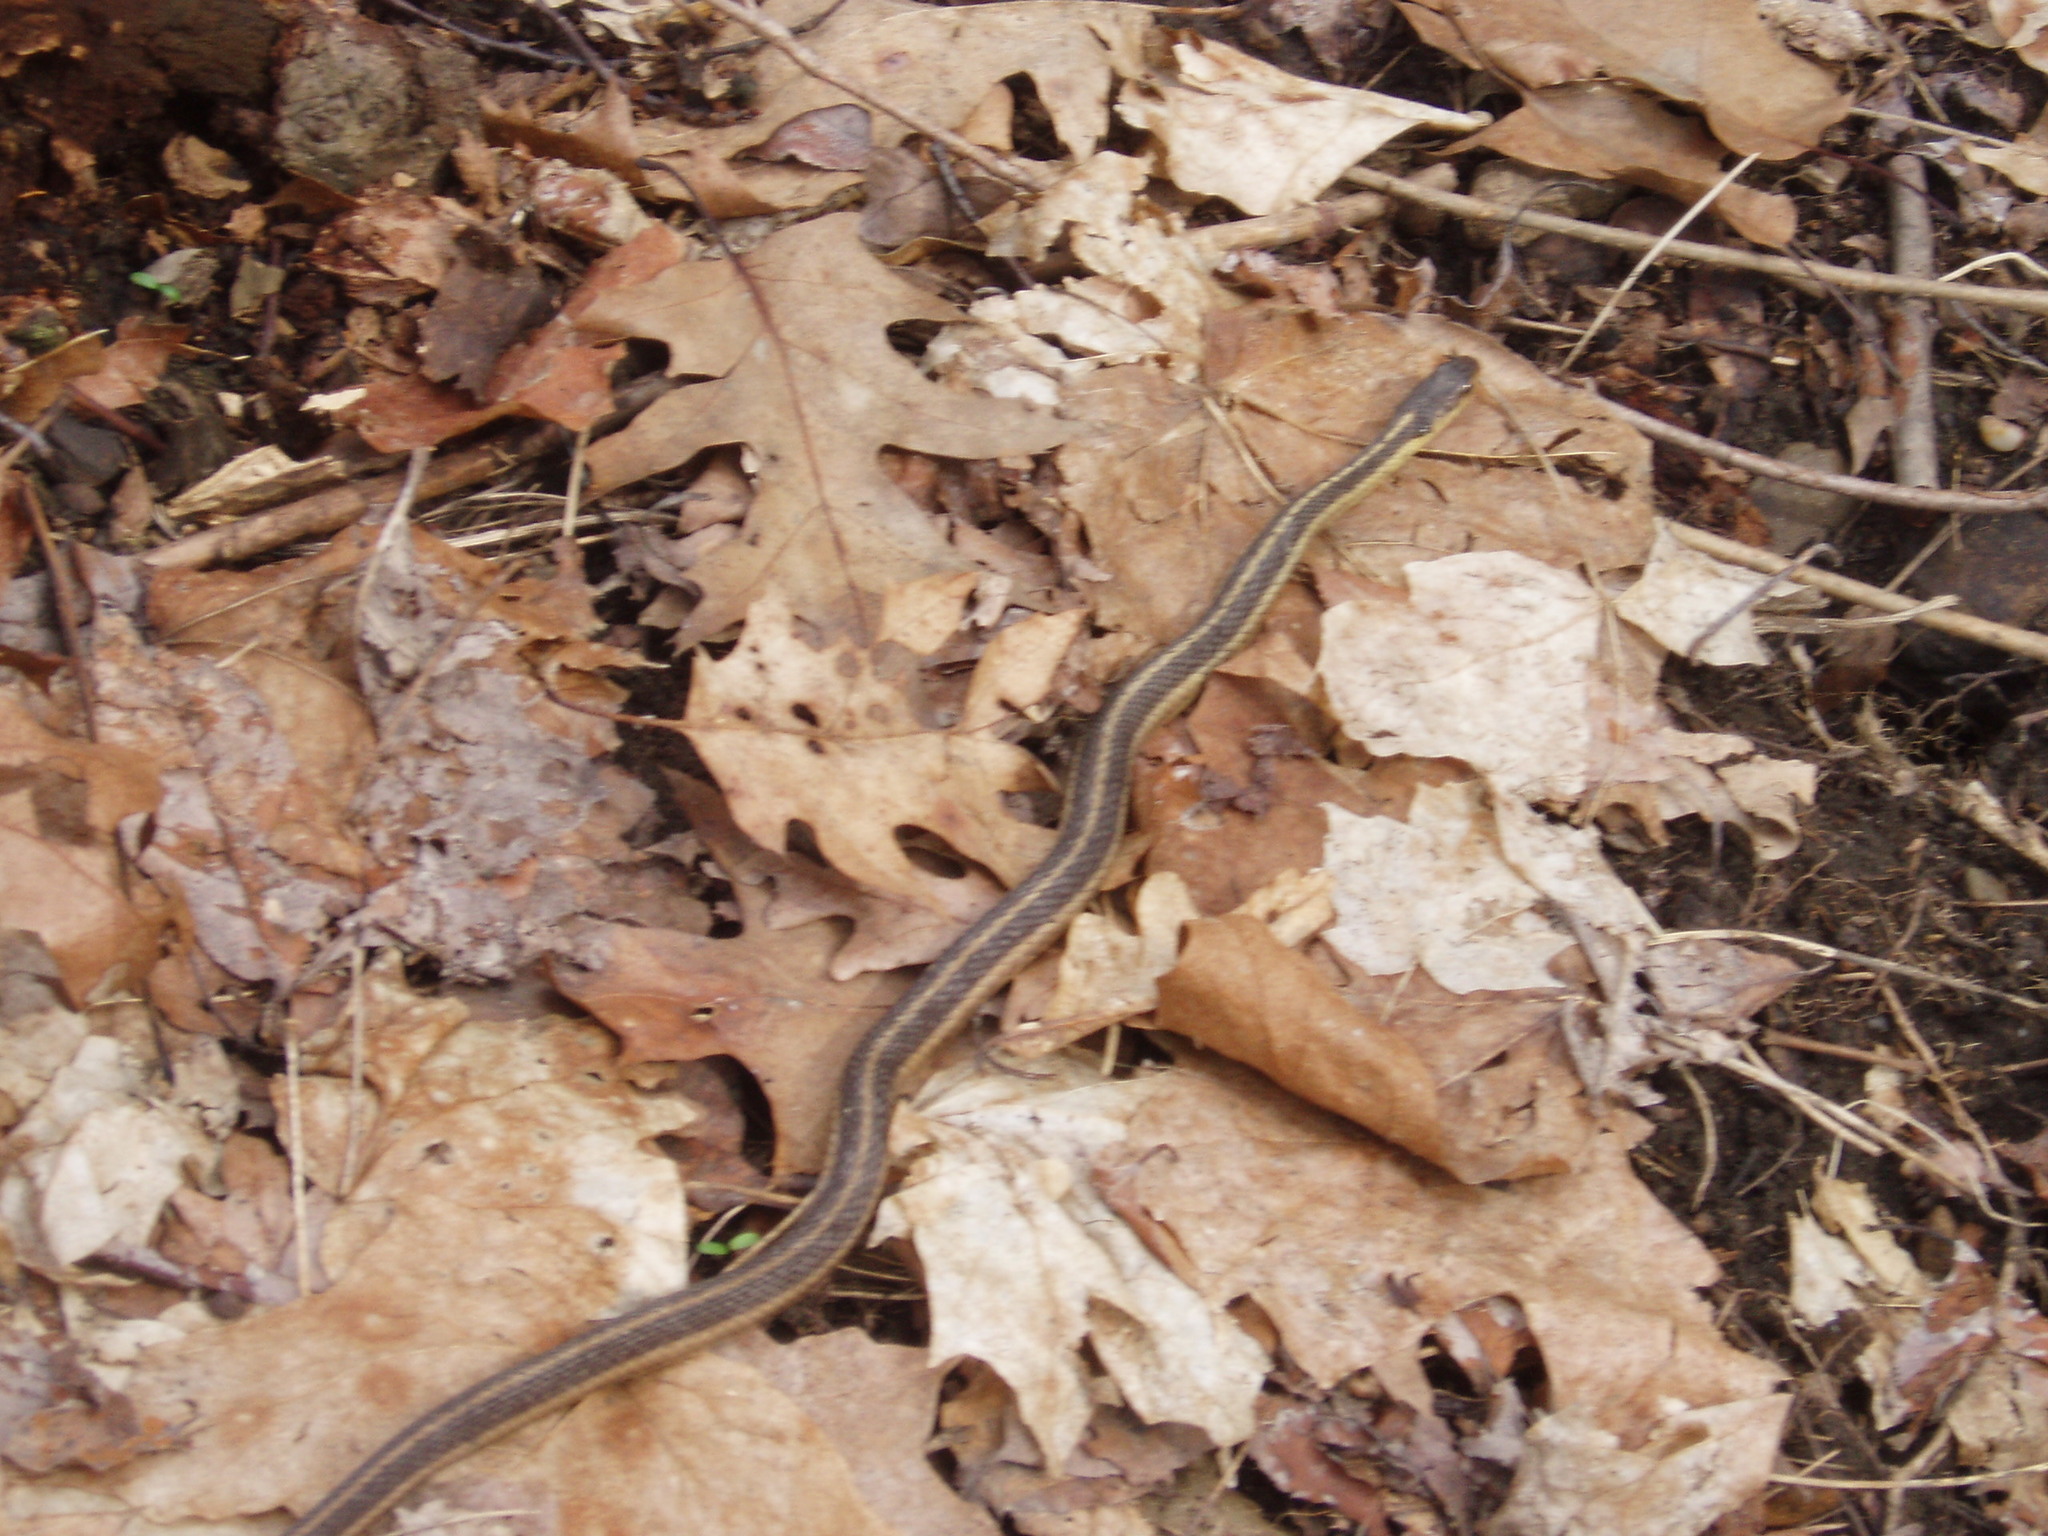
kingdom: Animalia
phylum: Chordata
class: Squamata
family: Colubridae
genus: Thamnophis
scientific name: Thamnophis sirtalis
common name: Common garter snake
